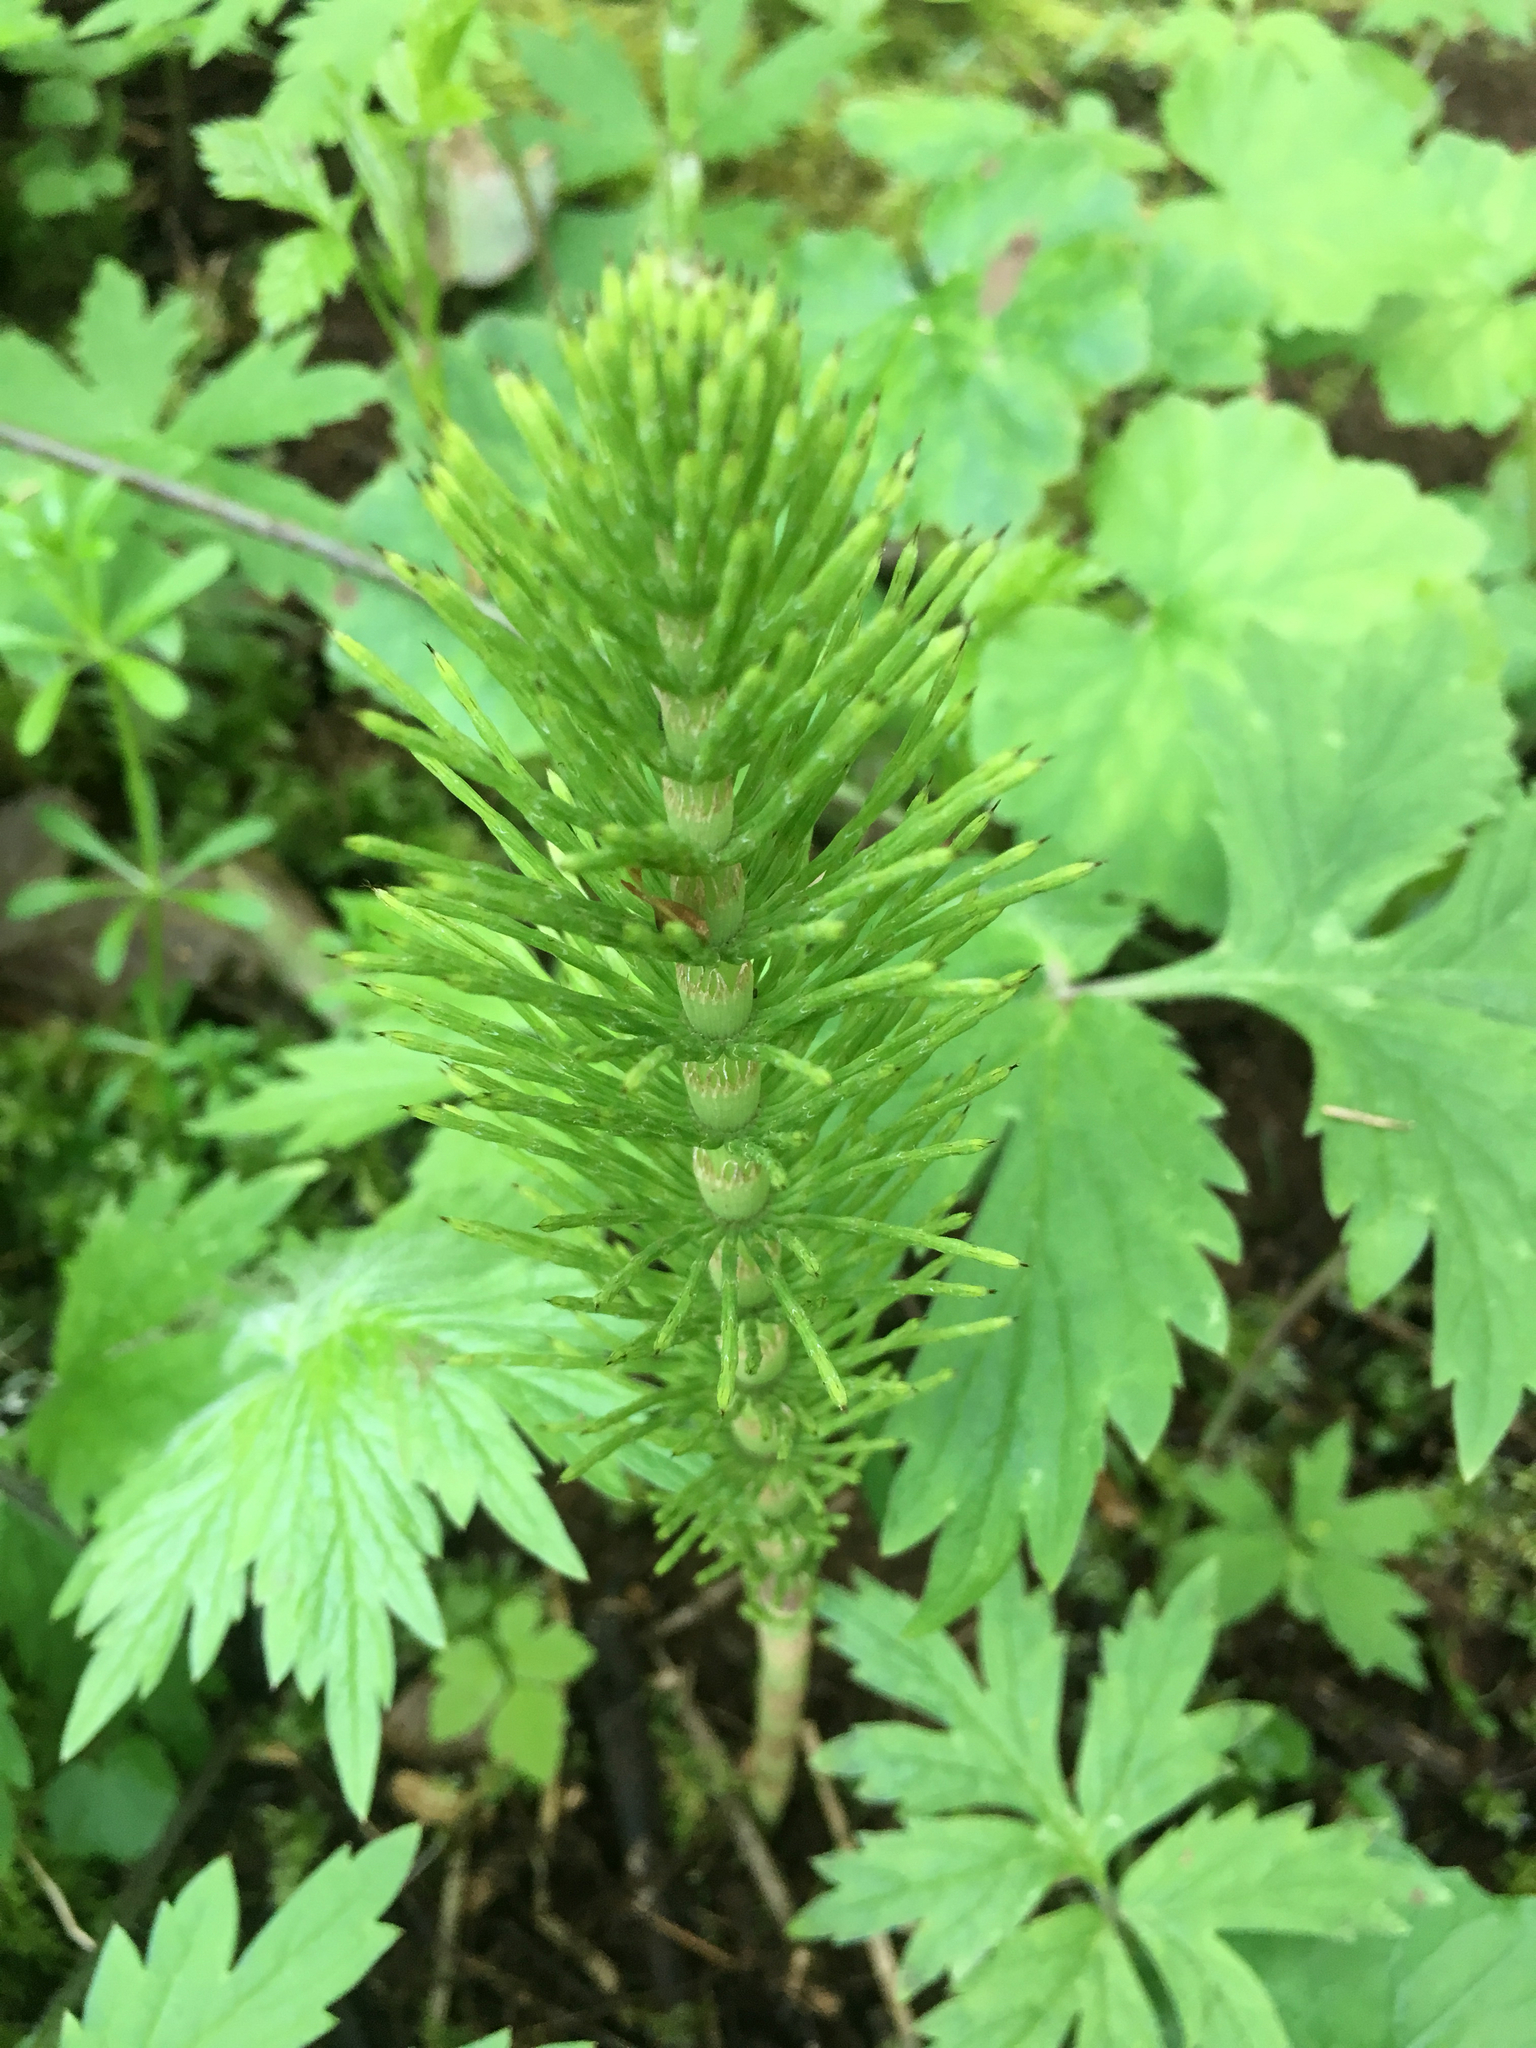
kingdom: Plantae
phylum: Tracheophyta
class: Polypodiopsida
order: Equisetales
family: Equisetaceae
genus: Equisetum
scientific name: Equisetum telmateia
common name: Great horsetail
